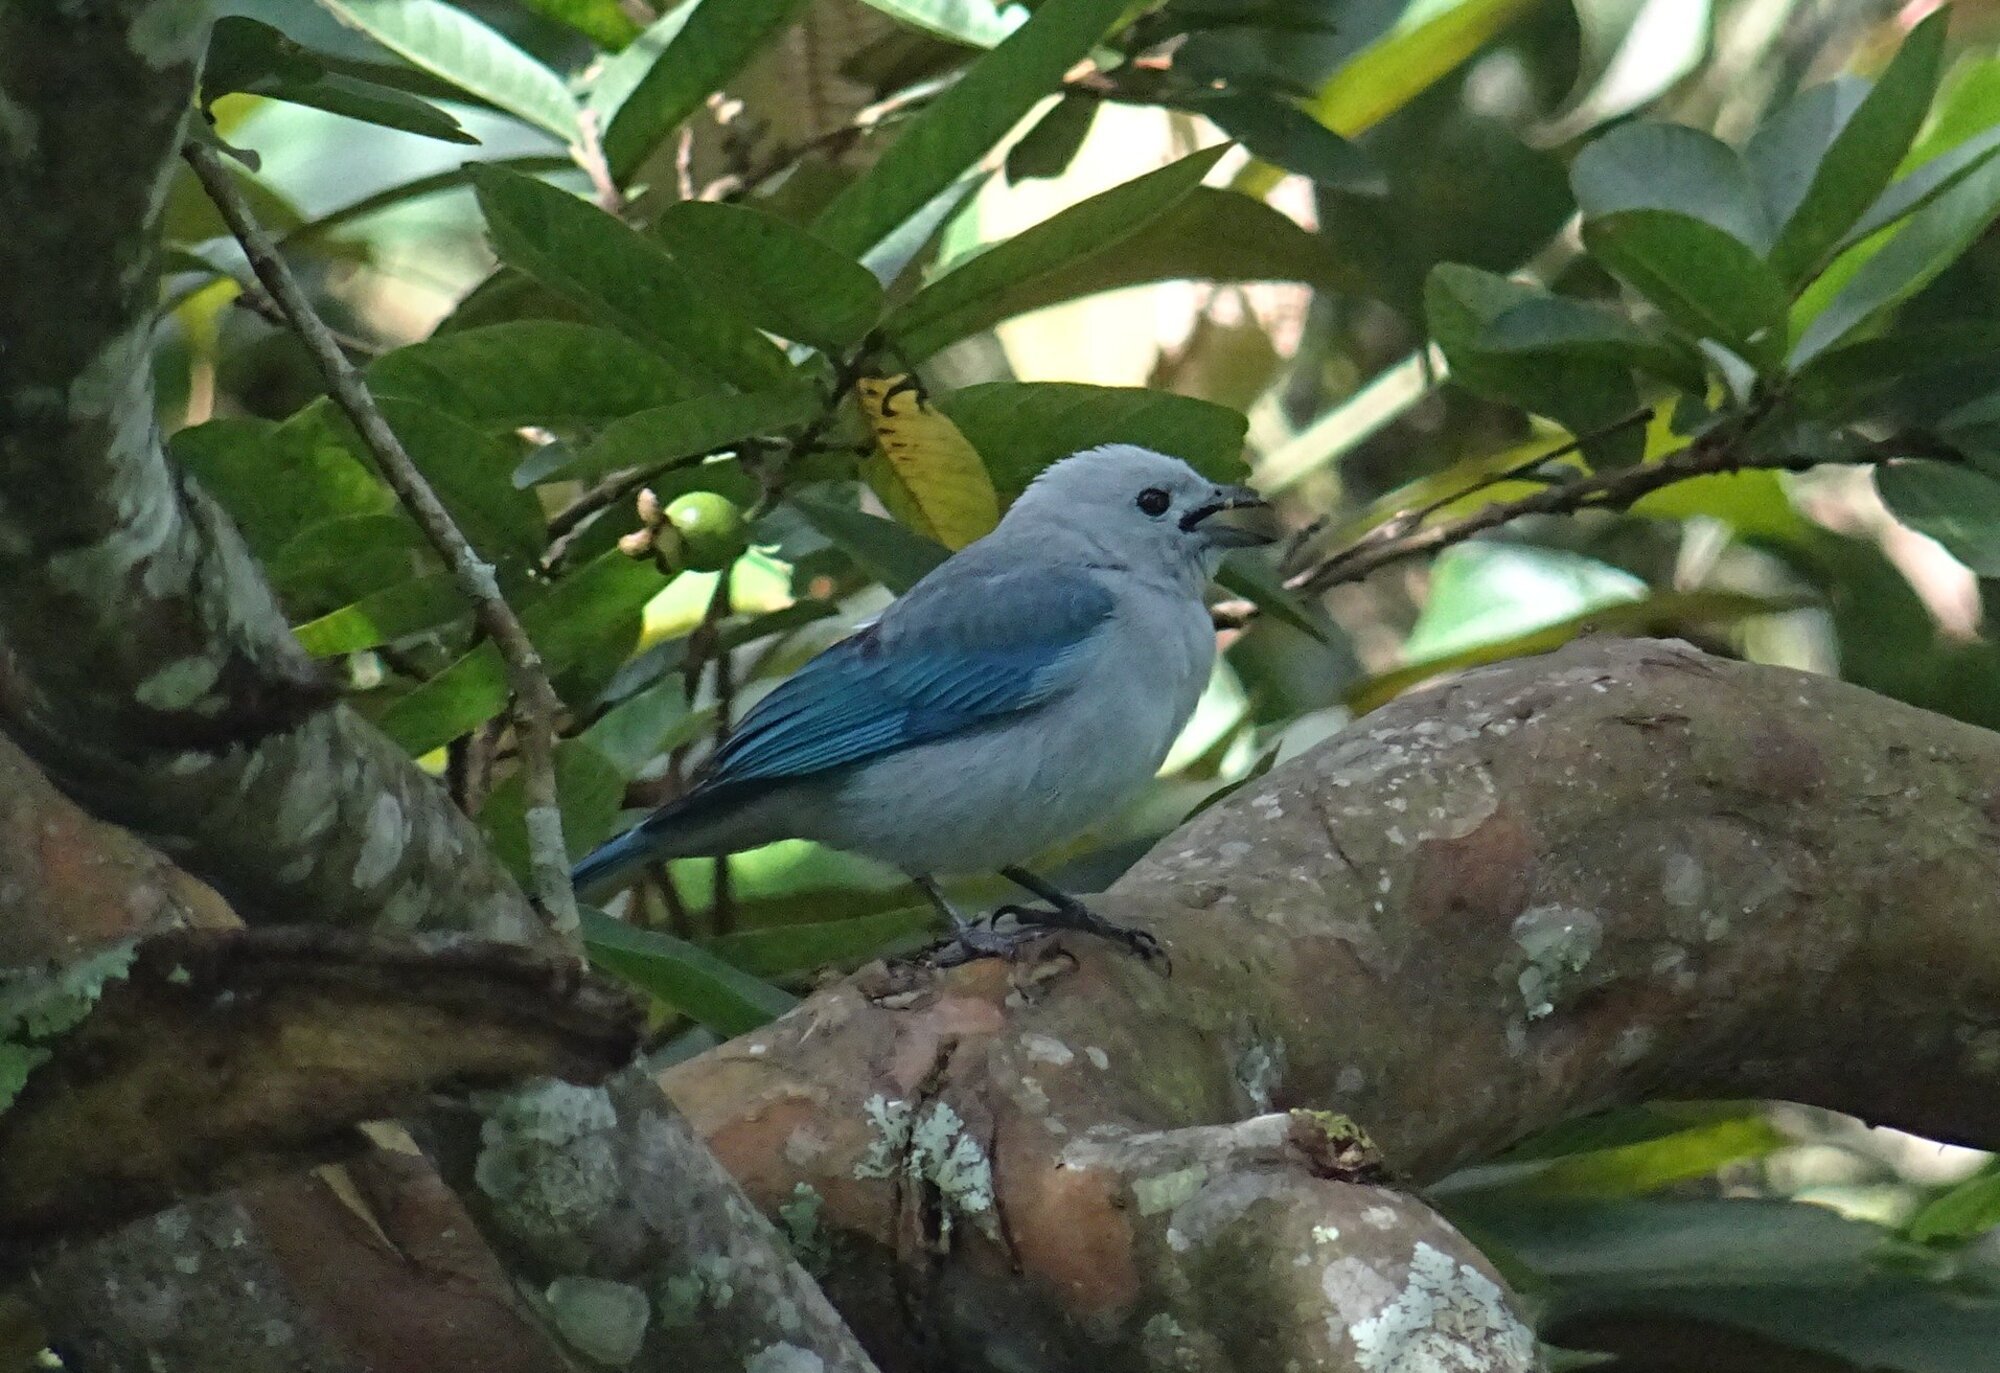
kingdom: Animalia
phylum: Chordata
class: Aves
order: Passeriformes
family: Thraupidae
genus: Thraupis
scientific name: Thraupis episcopus
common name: Blue-grey tanager
